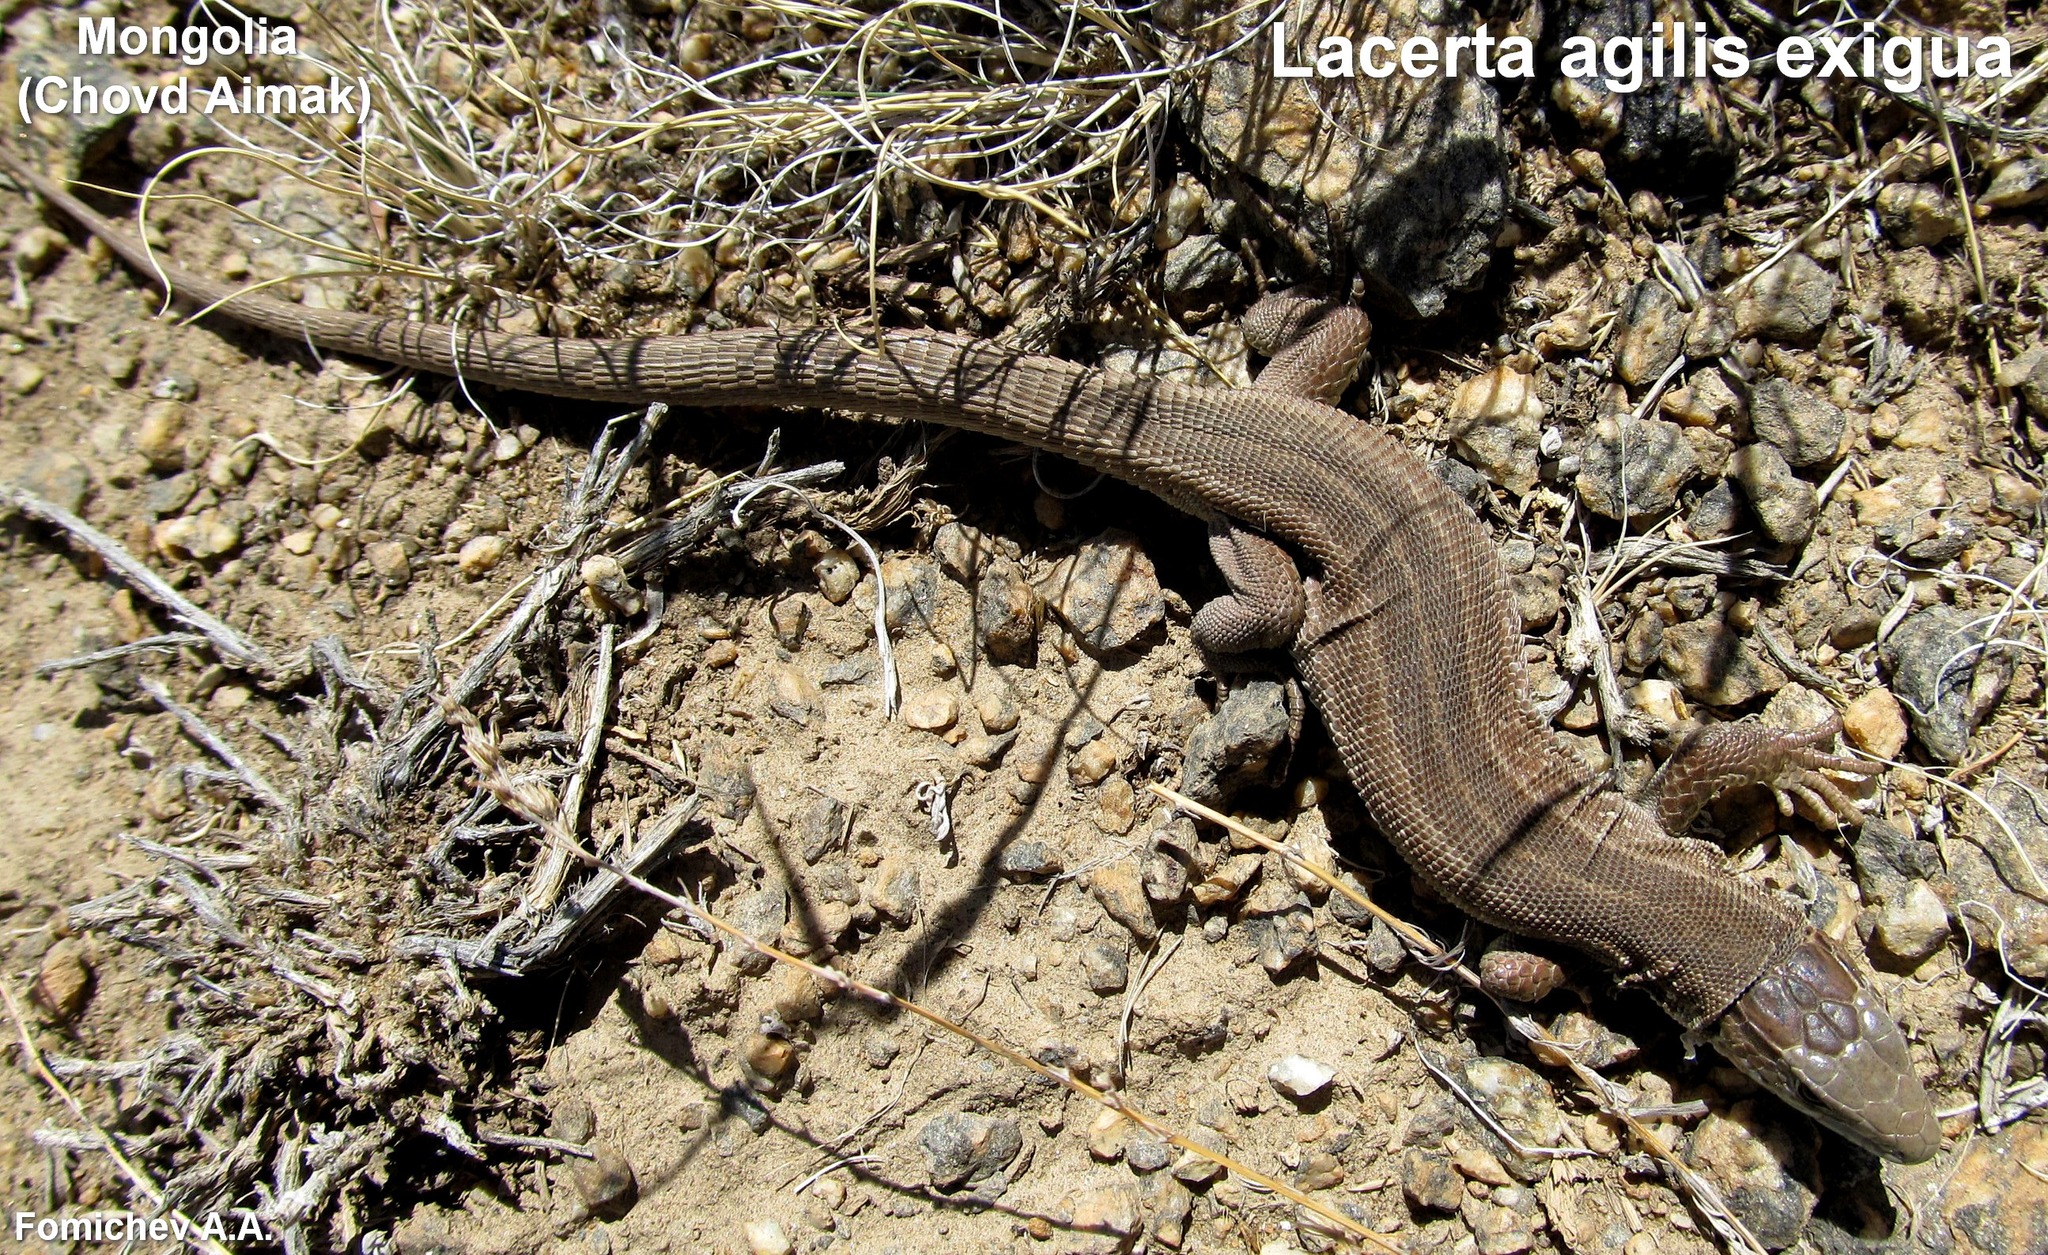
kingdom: Animalia
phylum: Chordata
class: Squamata
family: Lacertidae
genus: Lacerta
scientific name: Lacerta agilis
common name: Sand lizard
